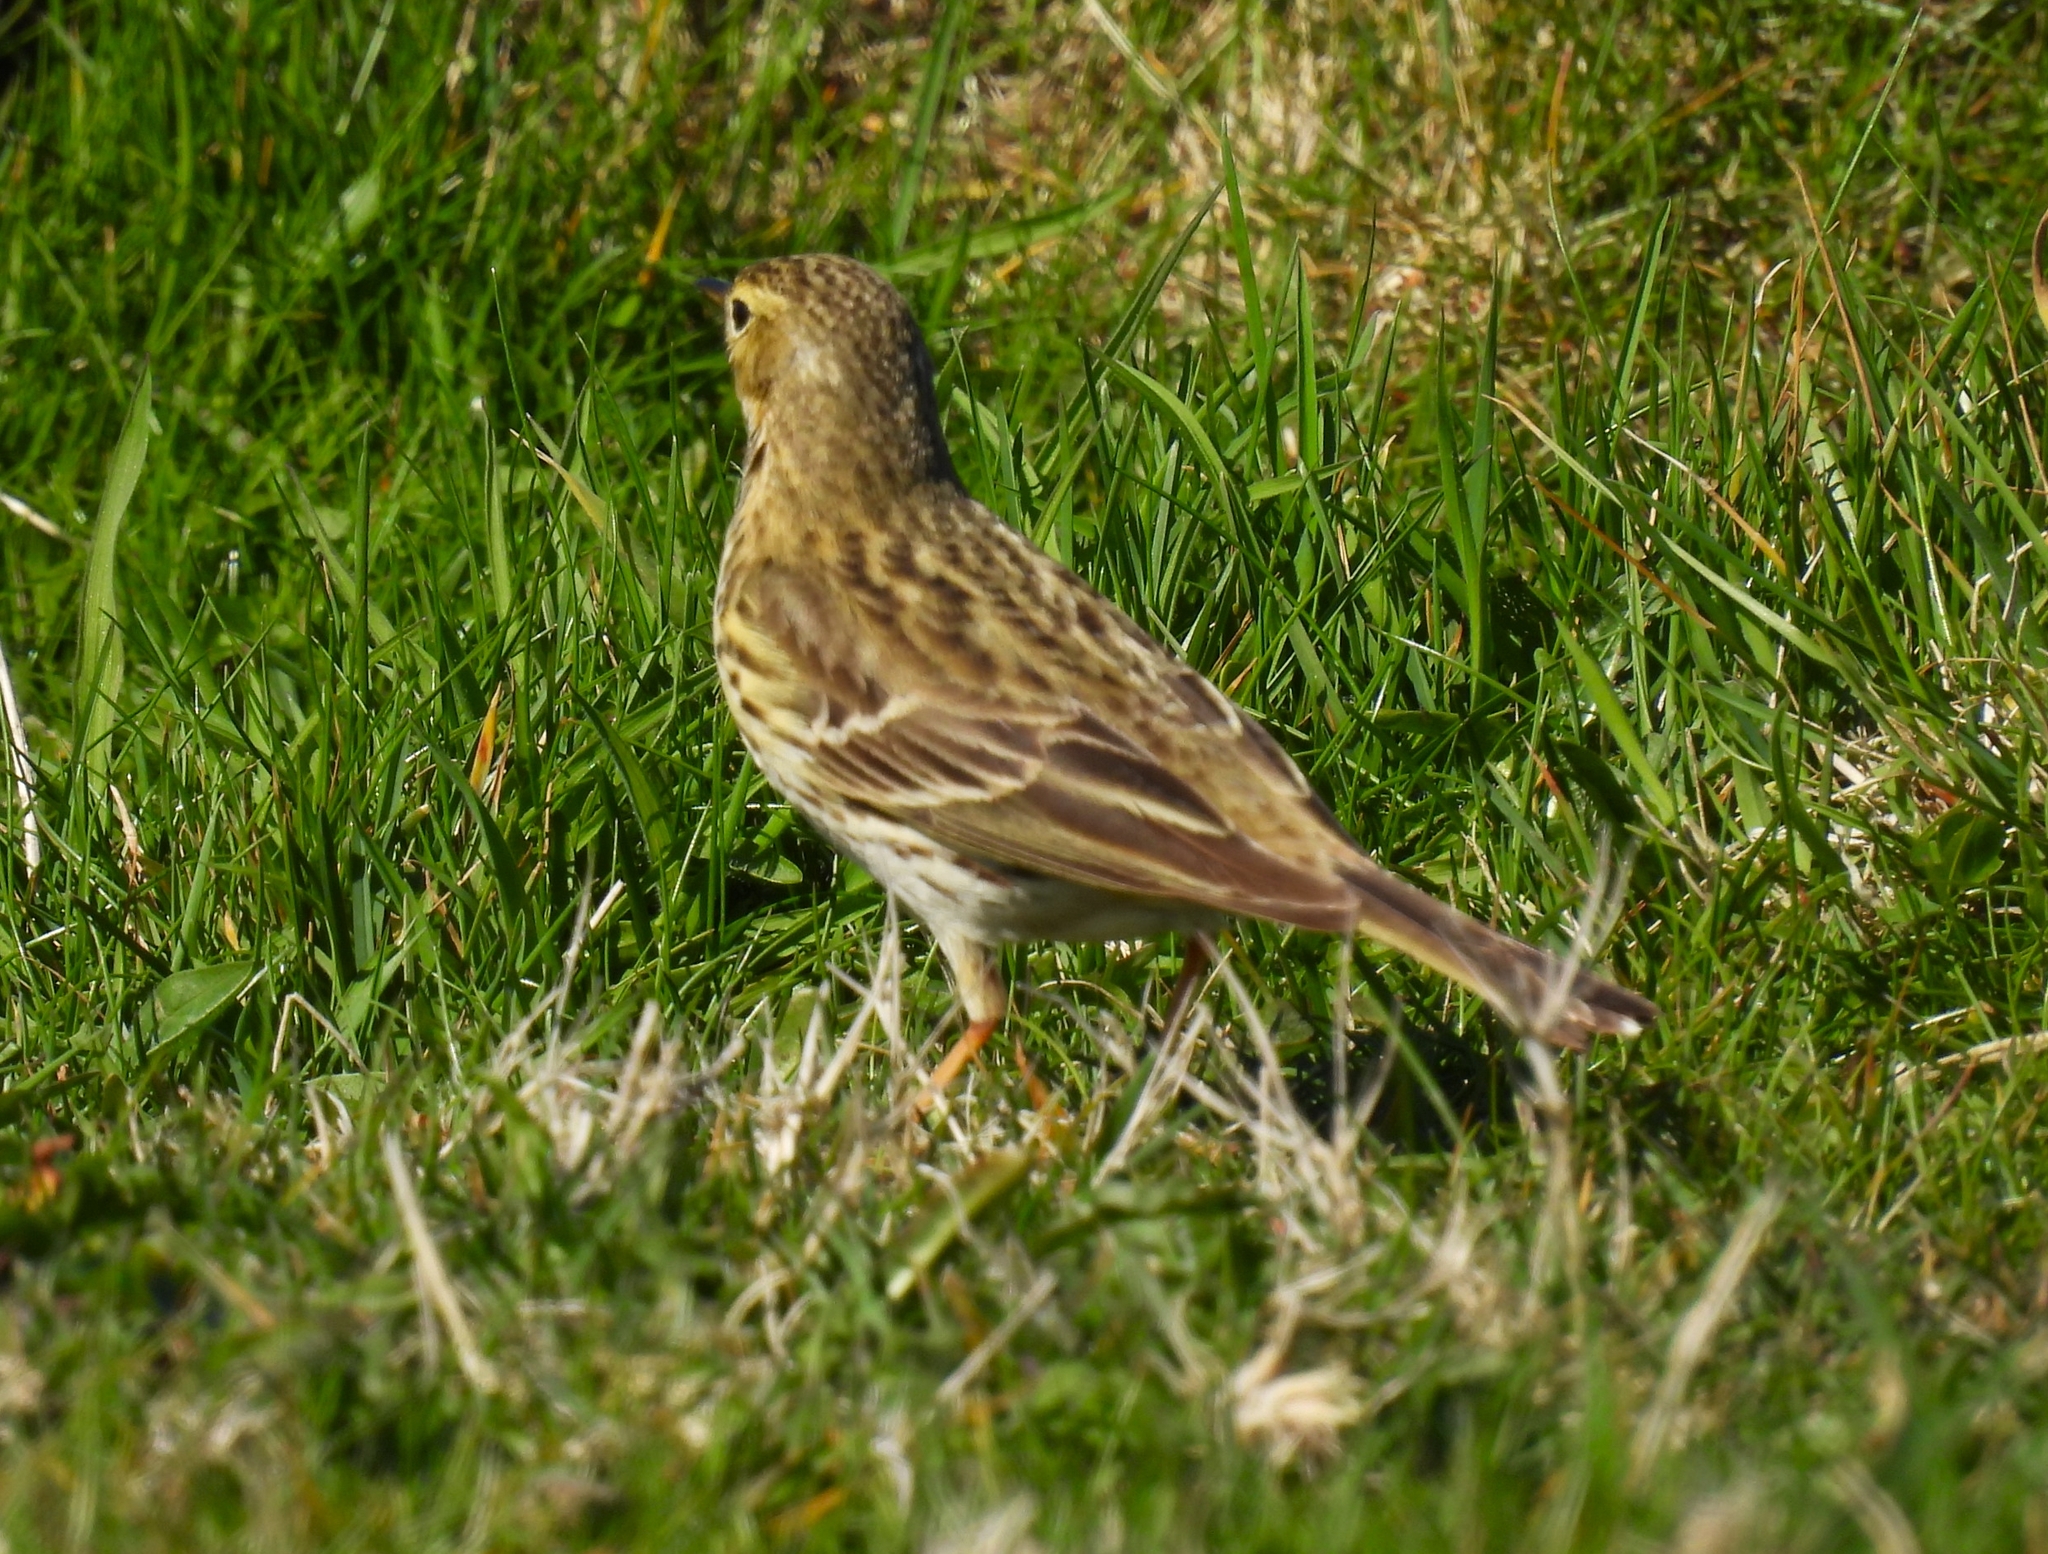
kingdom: Animalia
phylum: Chordata
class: Aves
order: Passeriformes
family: Motacillidae
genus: Anthus
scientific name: Anthus pratensis
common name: Meadow pipit
